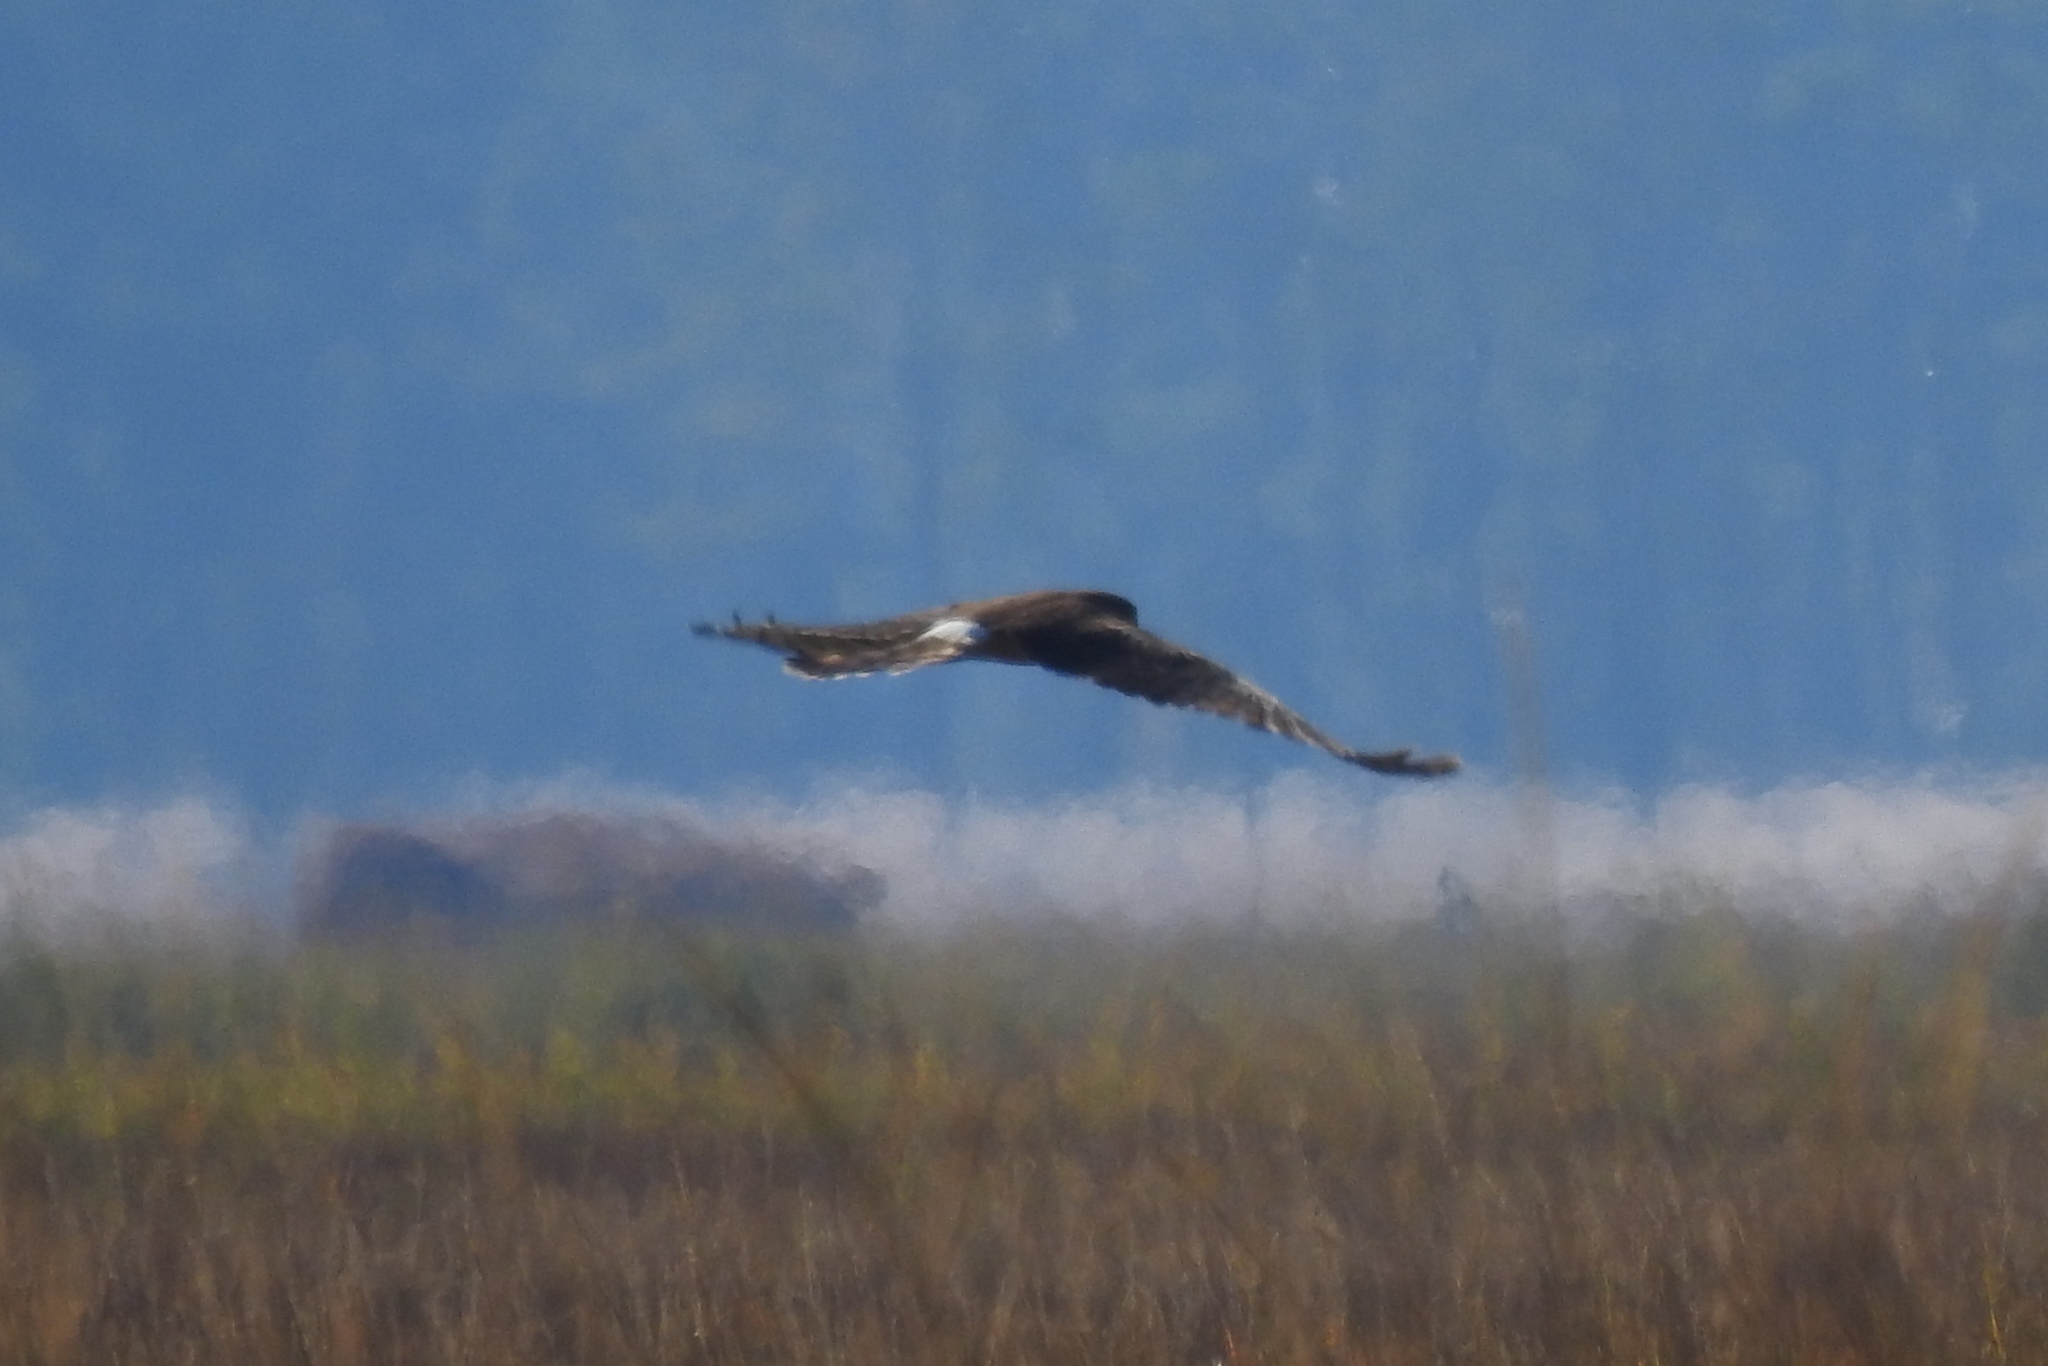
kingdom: Animalia
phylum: Chordata
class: Aves
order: Accipitriformes
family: Accipitridae
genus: Circus
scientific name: Circus cyaneus
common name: Hen harrier
